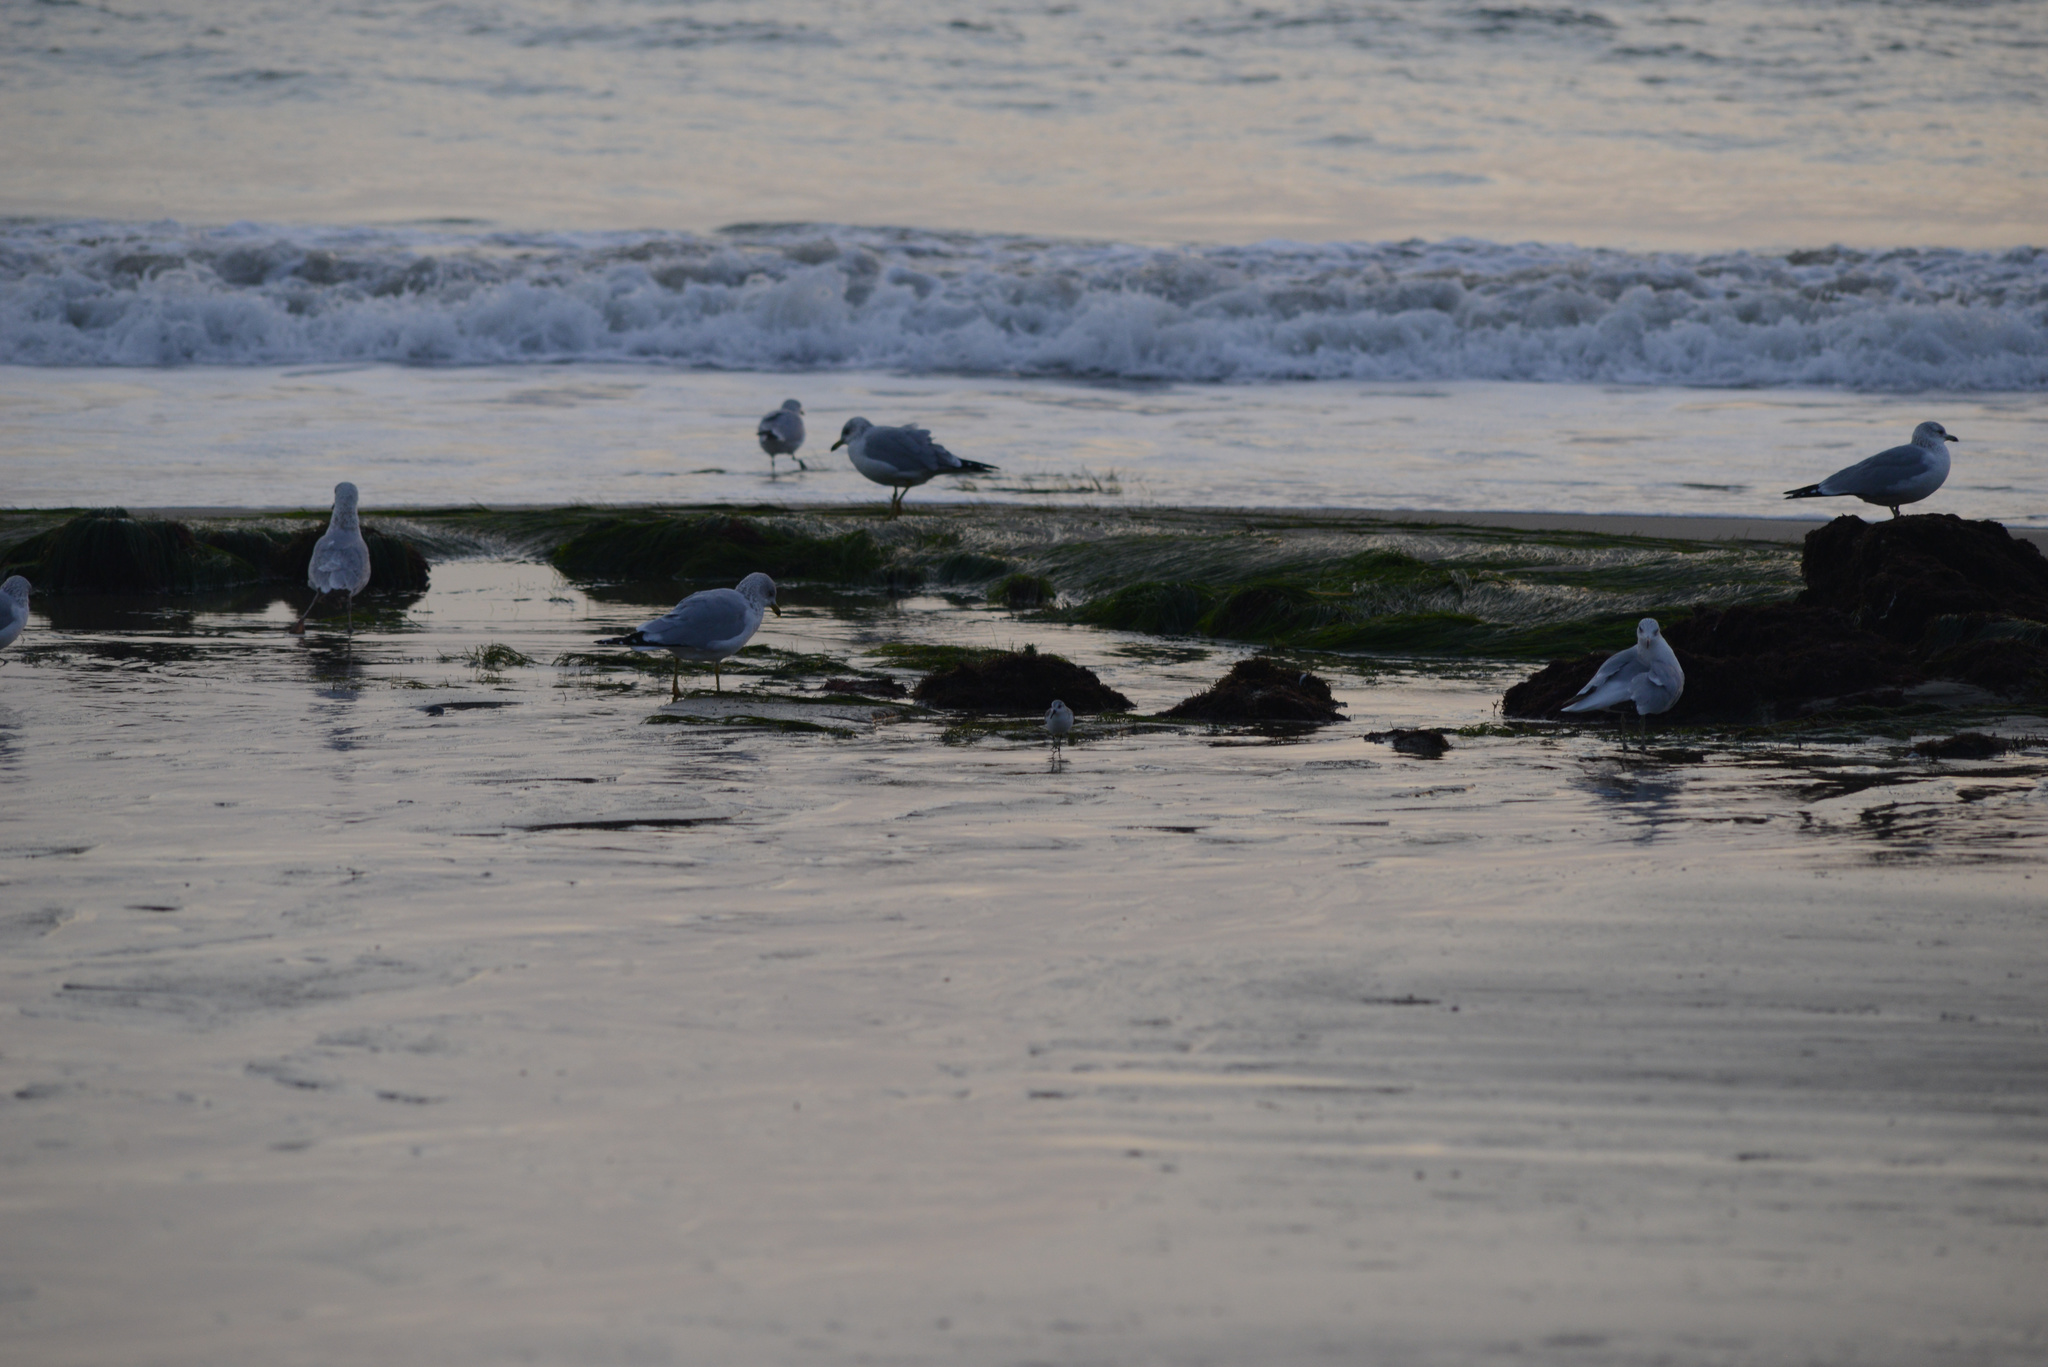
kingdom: Animalia
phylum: Chordata
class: Aves
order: Charadriiformes
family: Laridae
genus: Larus
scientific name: Larus delawarensis
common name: Ring-billed gull
